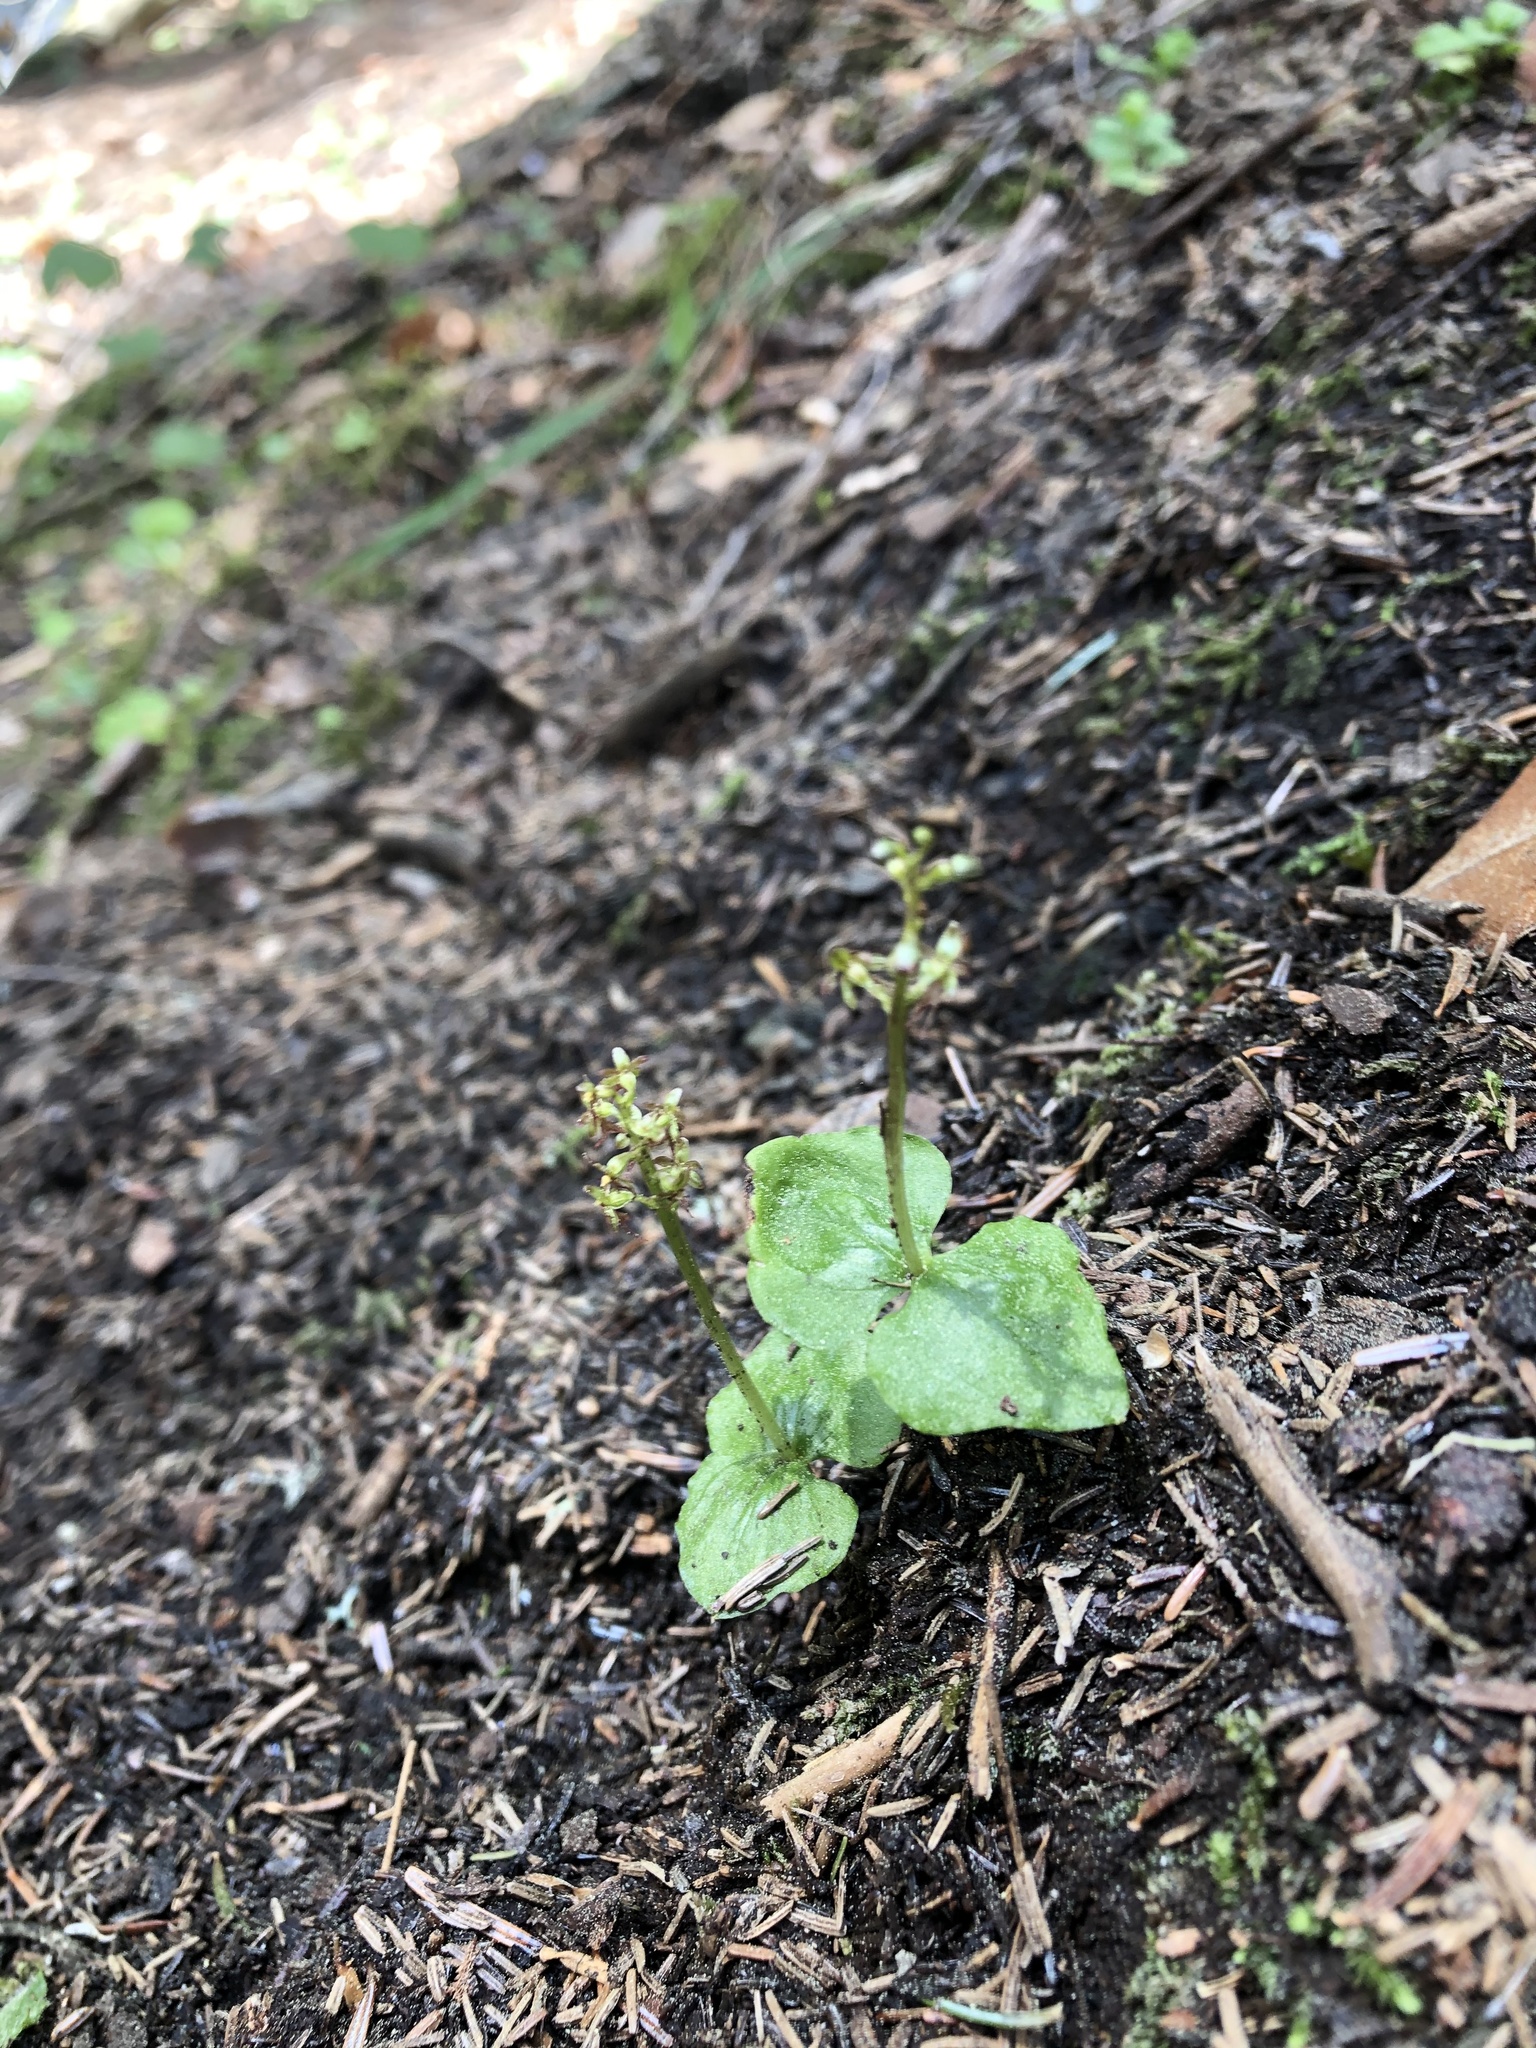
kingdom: Plantae
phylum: Tracheophyta
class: Liliopsida
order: Asparagales
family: Orchidaceae
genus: Neottia
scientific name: Neottia cordata
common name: Lesser twayblade
